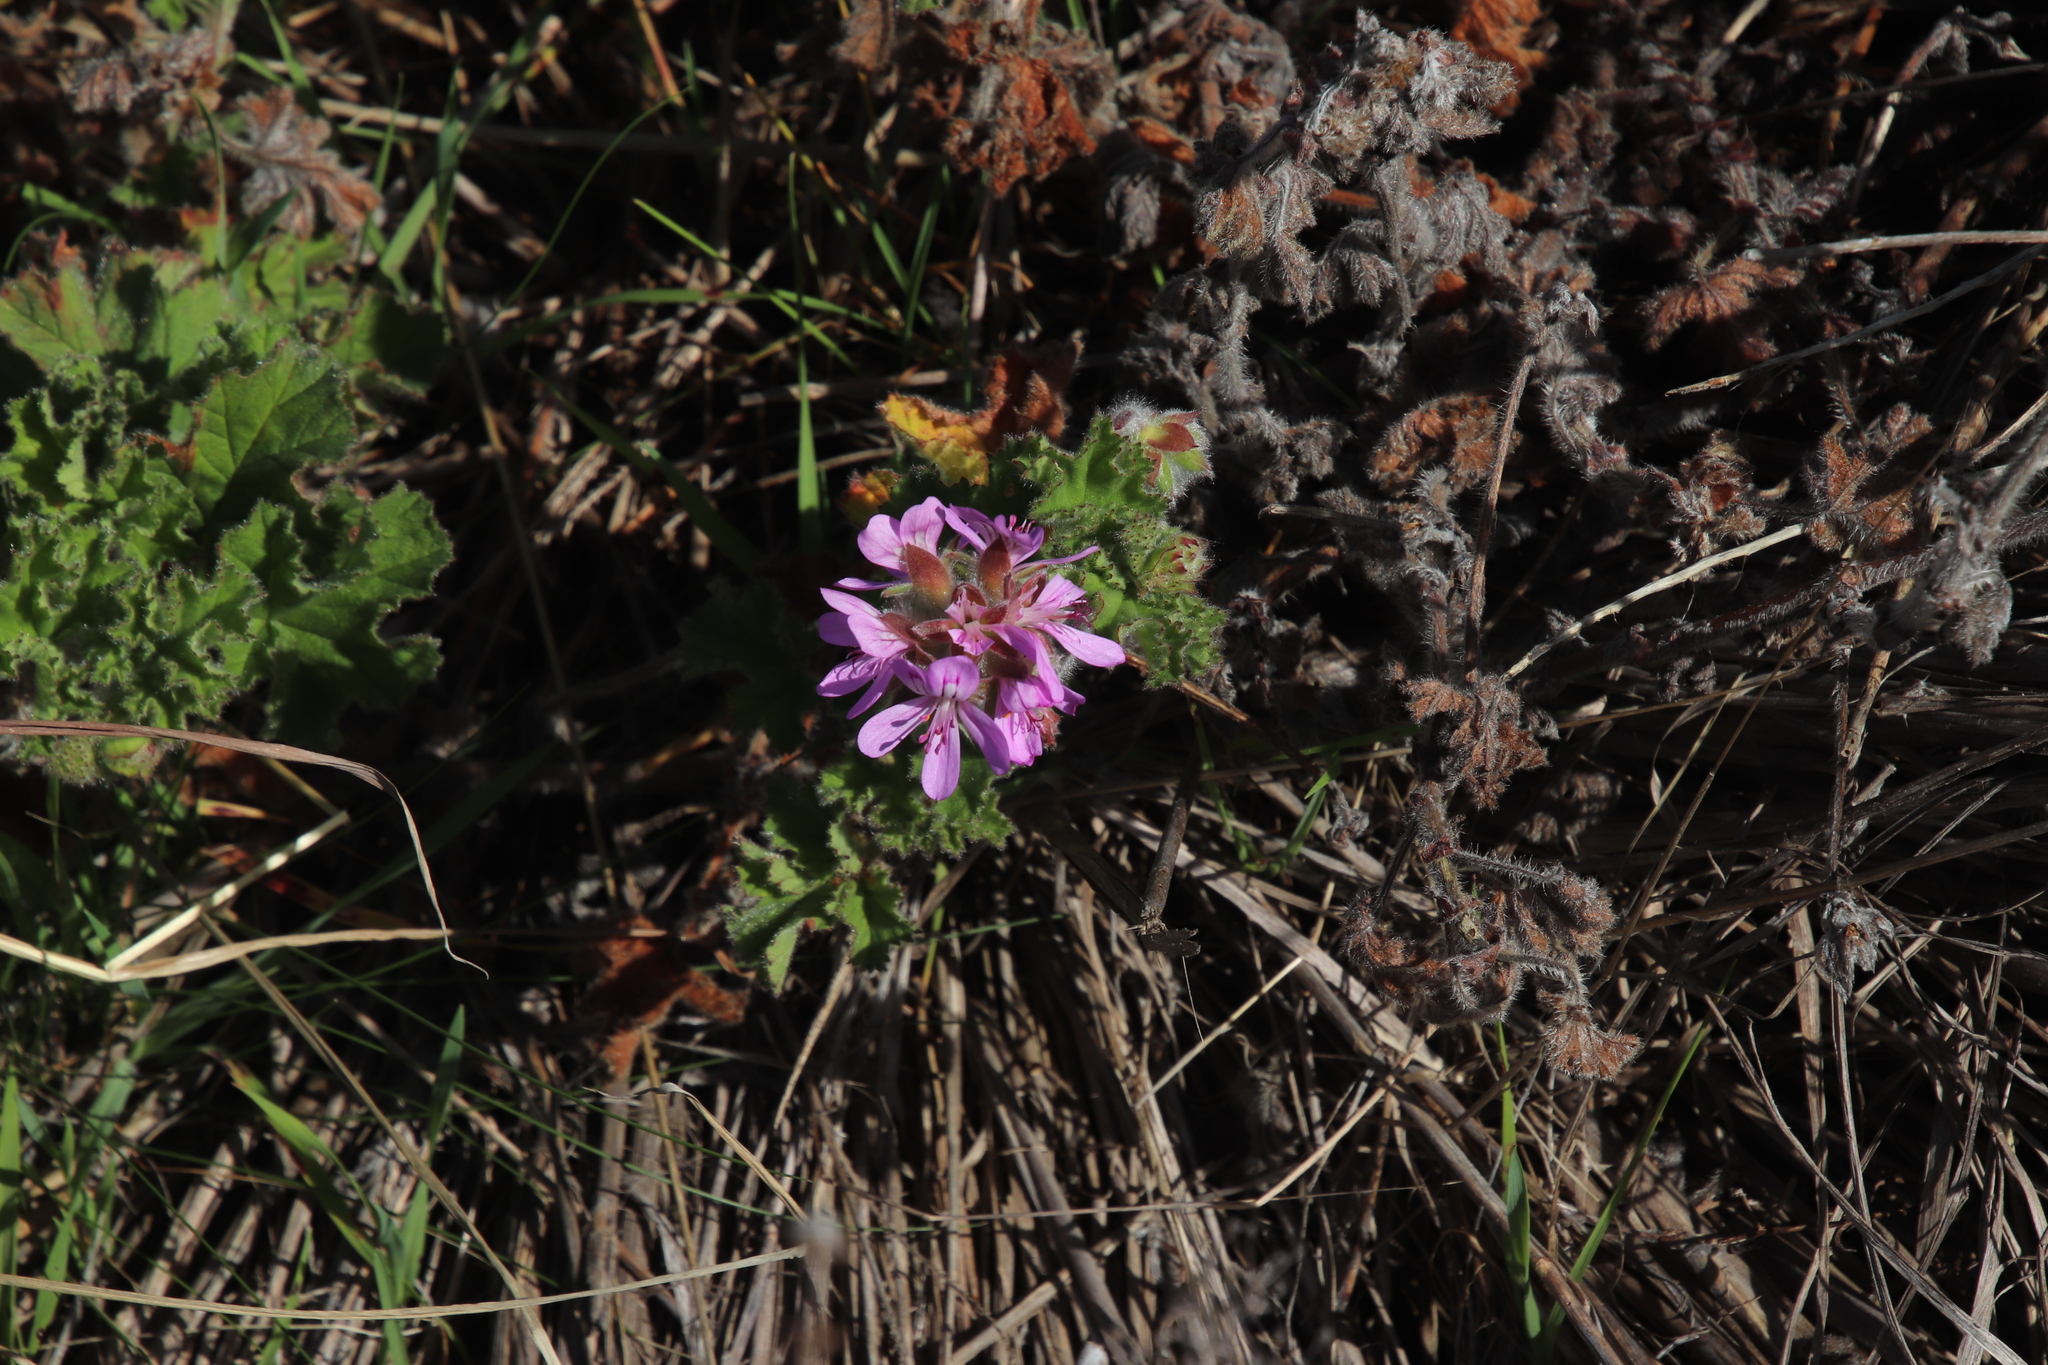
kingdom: Plantae
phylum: Tracheophyta
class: Magnoliopsida
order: Geraniales
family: Geraniaceae
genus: Pelargonium
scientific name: Pelargonium capitatum
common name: Rose scented geranium
